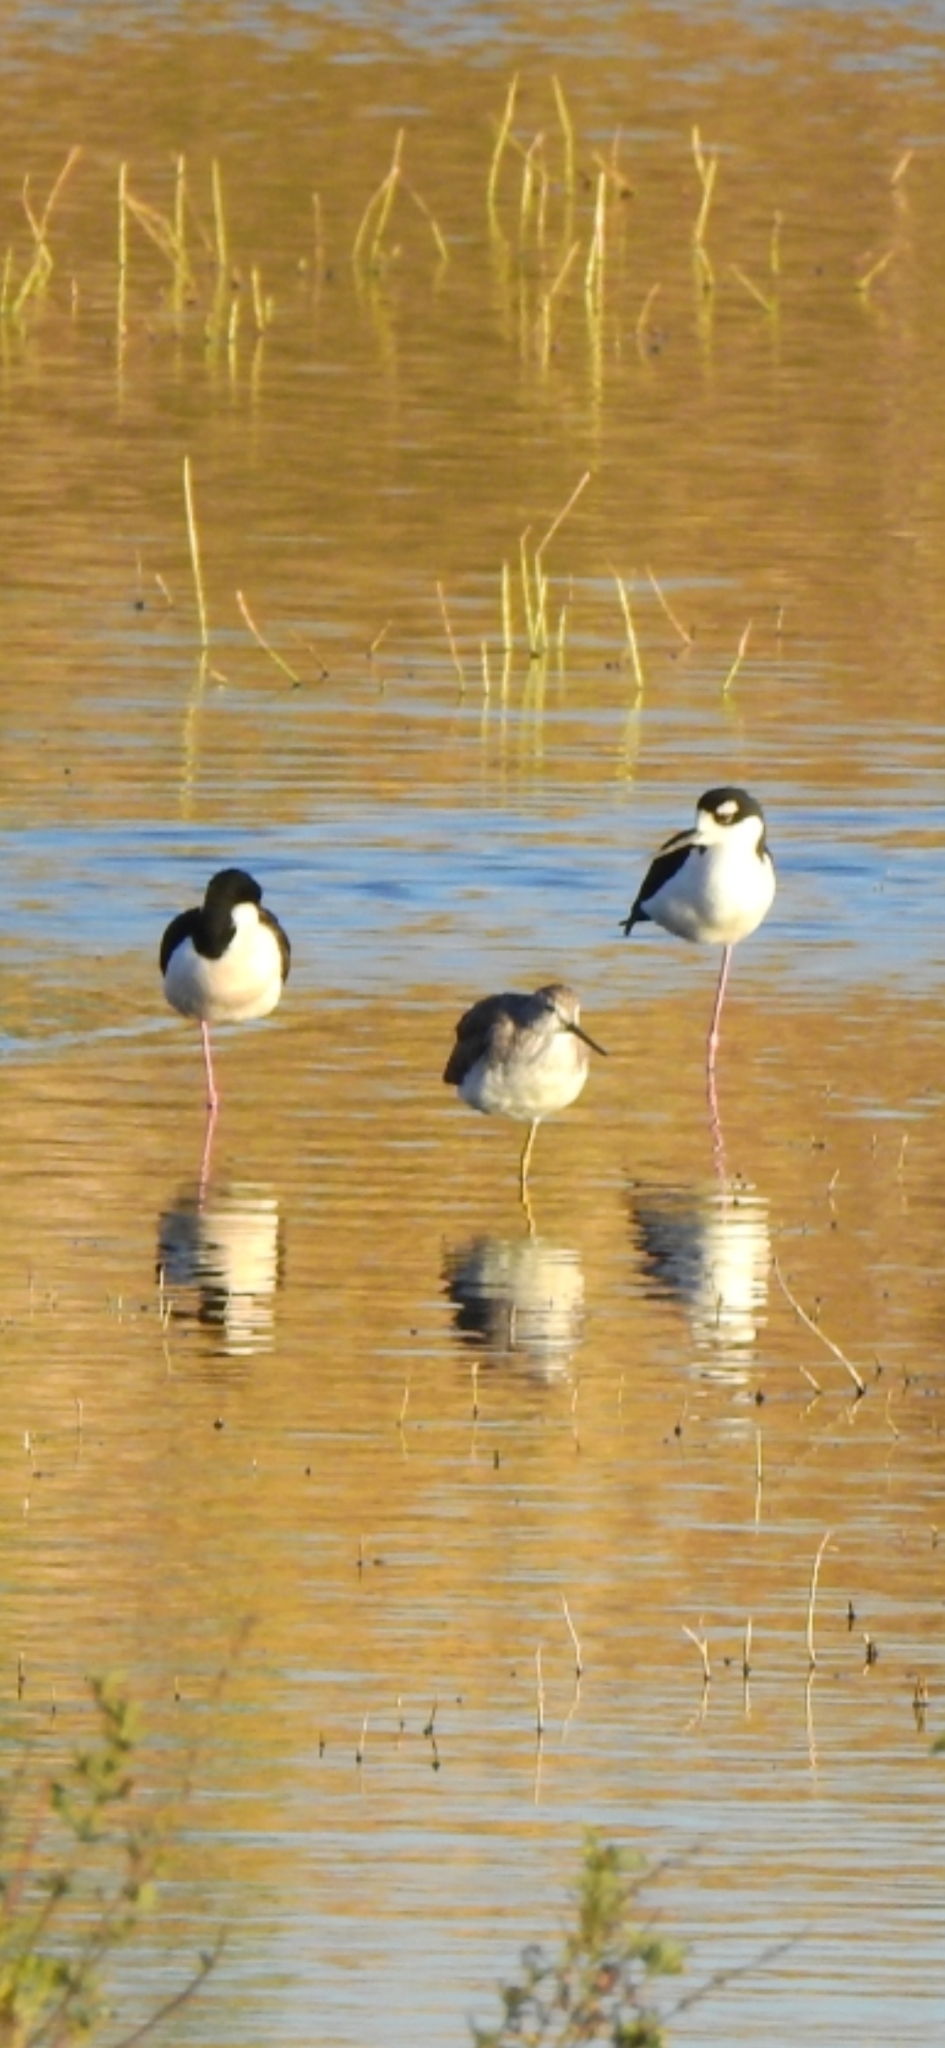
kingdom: Animalia
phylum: Chordata
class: Aves
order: Charadriiformes
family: Scolopacidae
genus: Tringa
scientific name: Tringa flavipes
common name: Lesser yellowlegs
